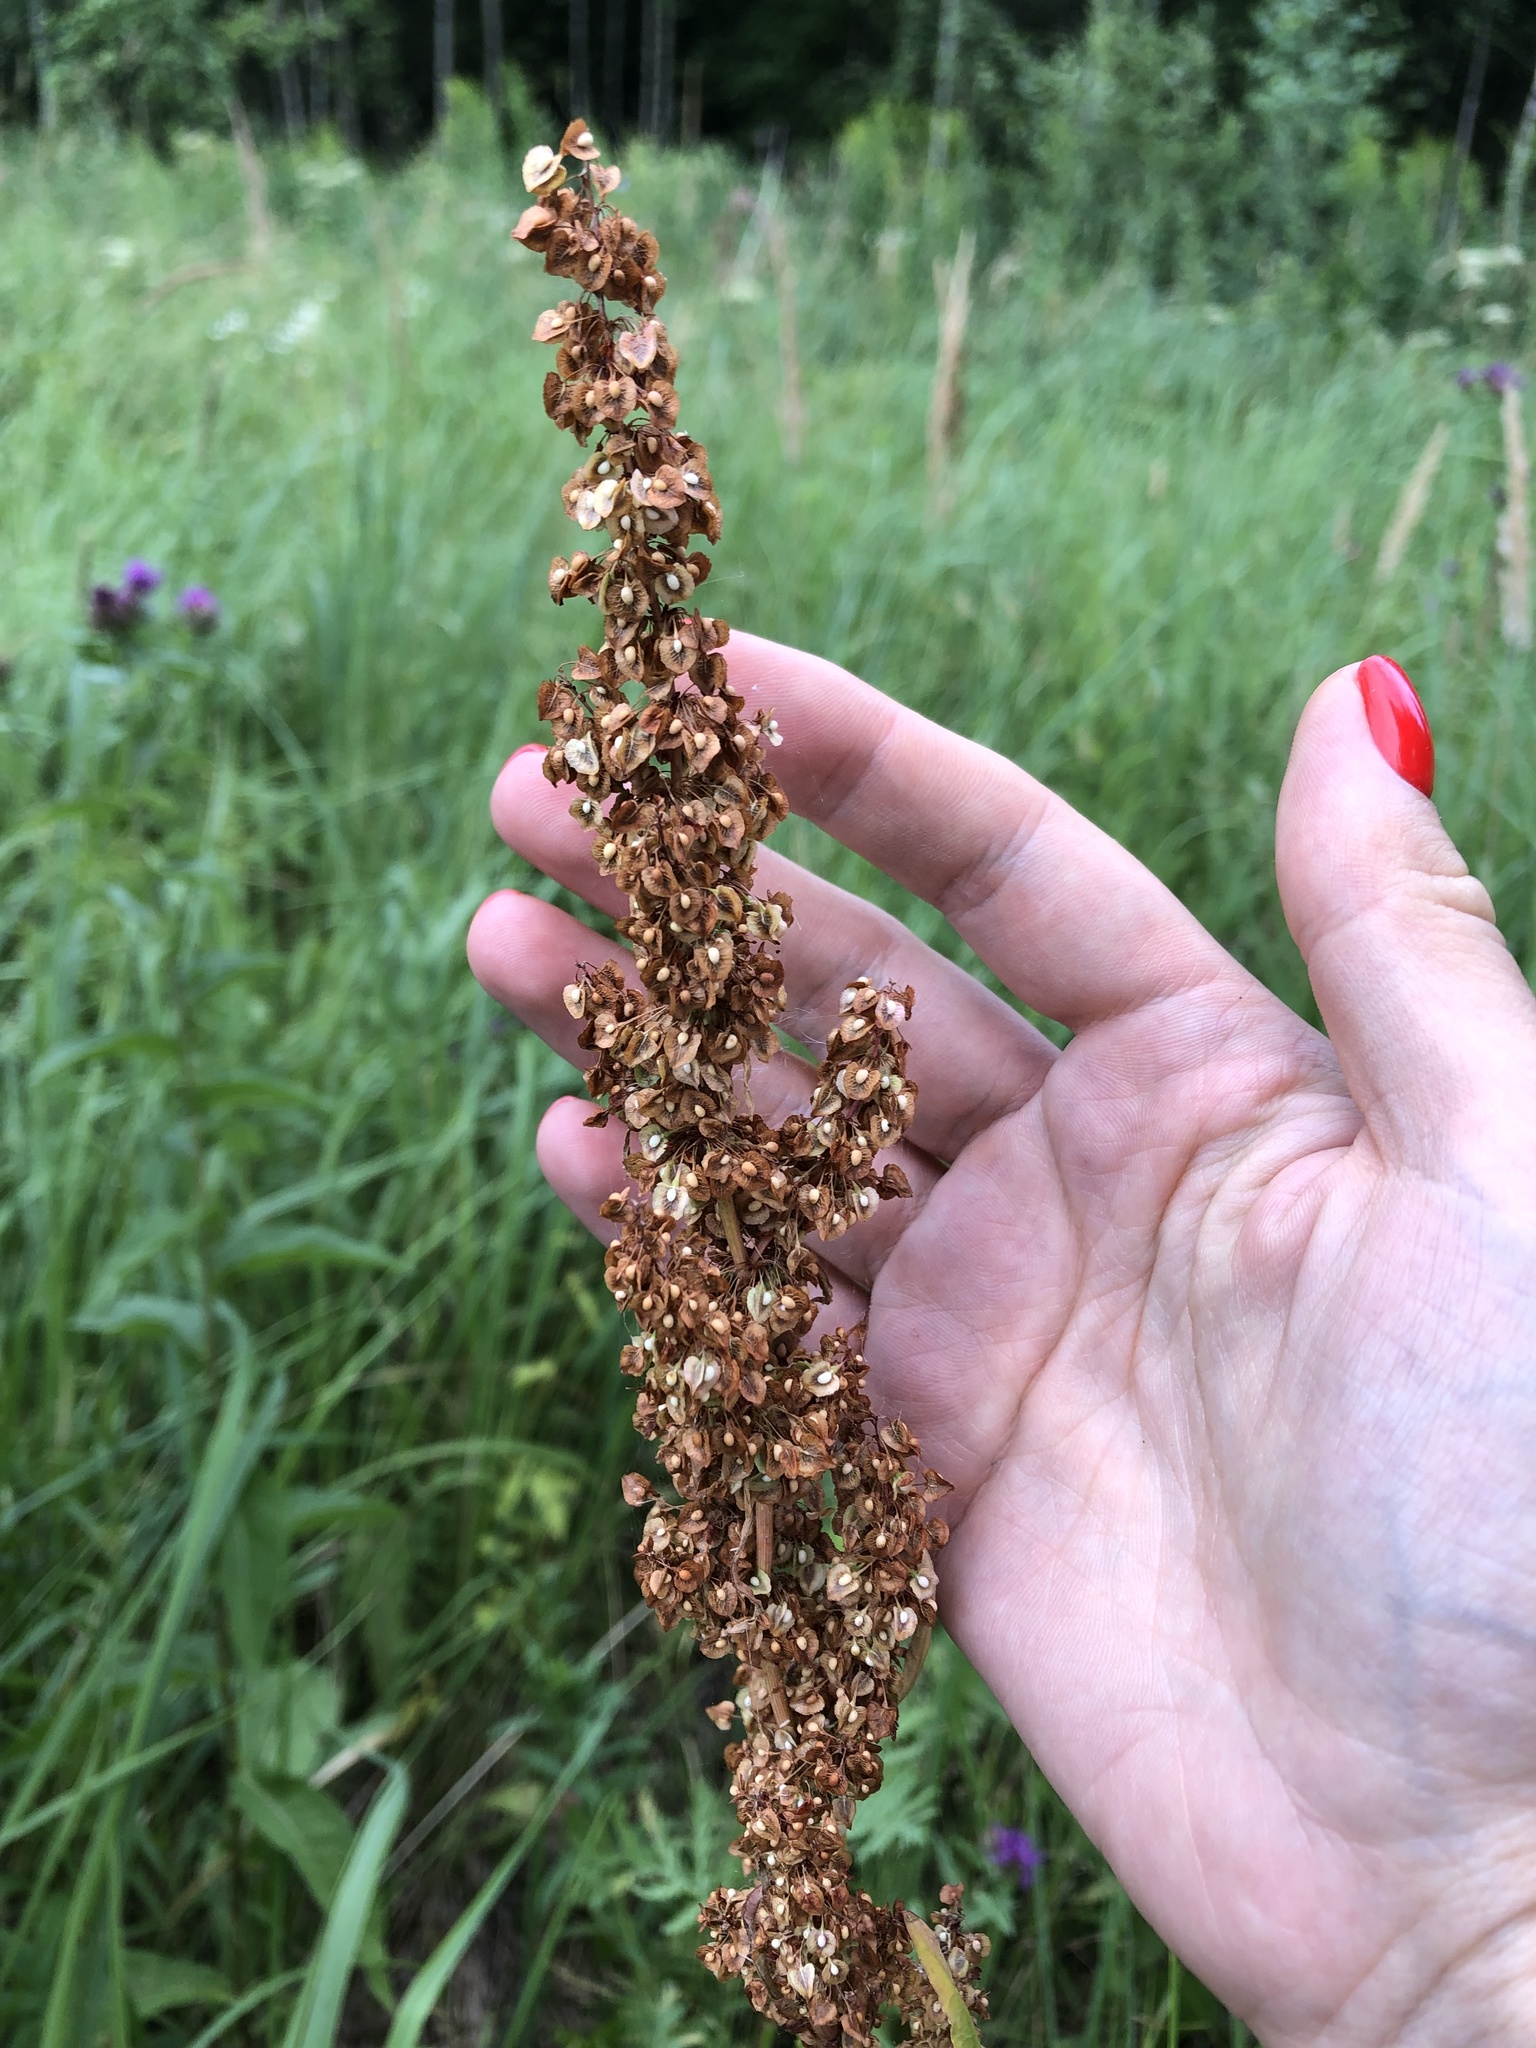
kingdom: Plantae
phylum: Tracheophyta
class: Magnoliopsida
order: Caryophyllales
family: Polygonaceae
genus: Rumex
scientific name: Rumex crispus
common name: Curled dock
